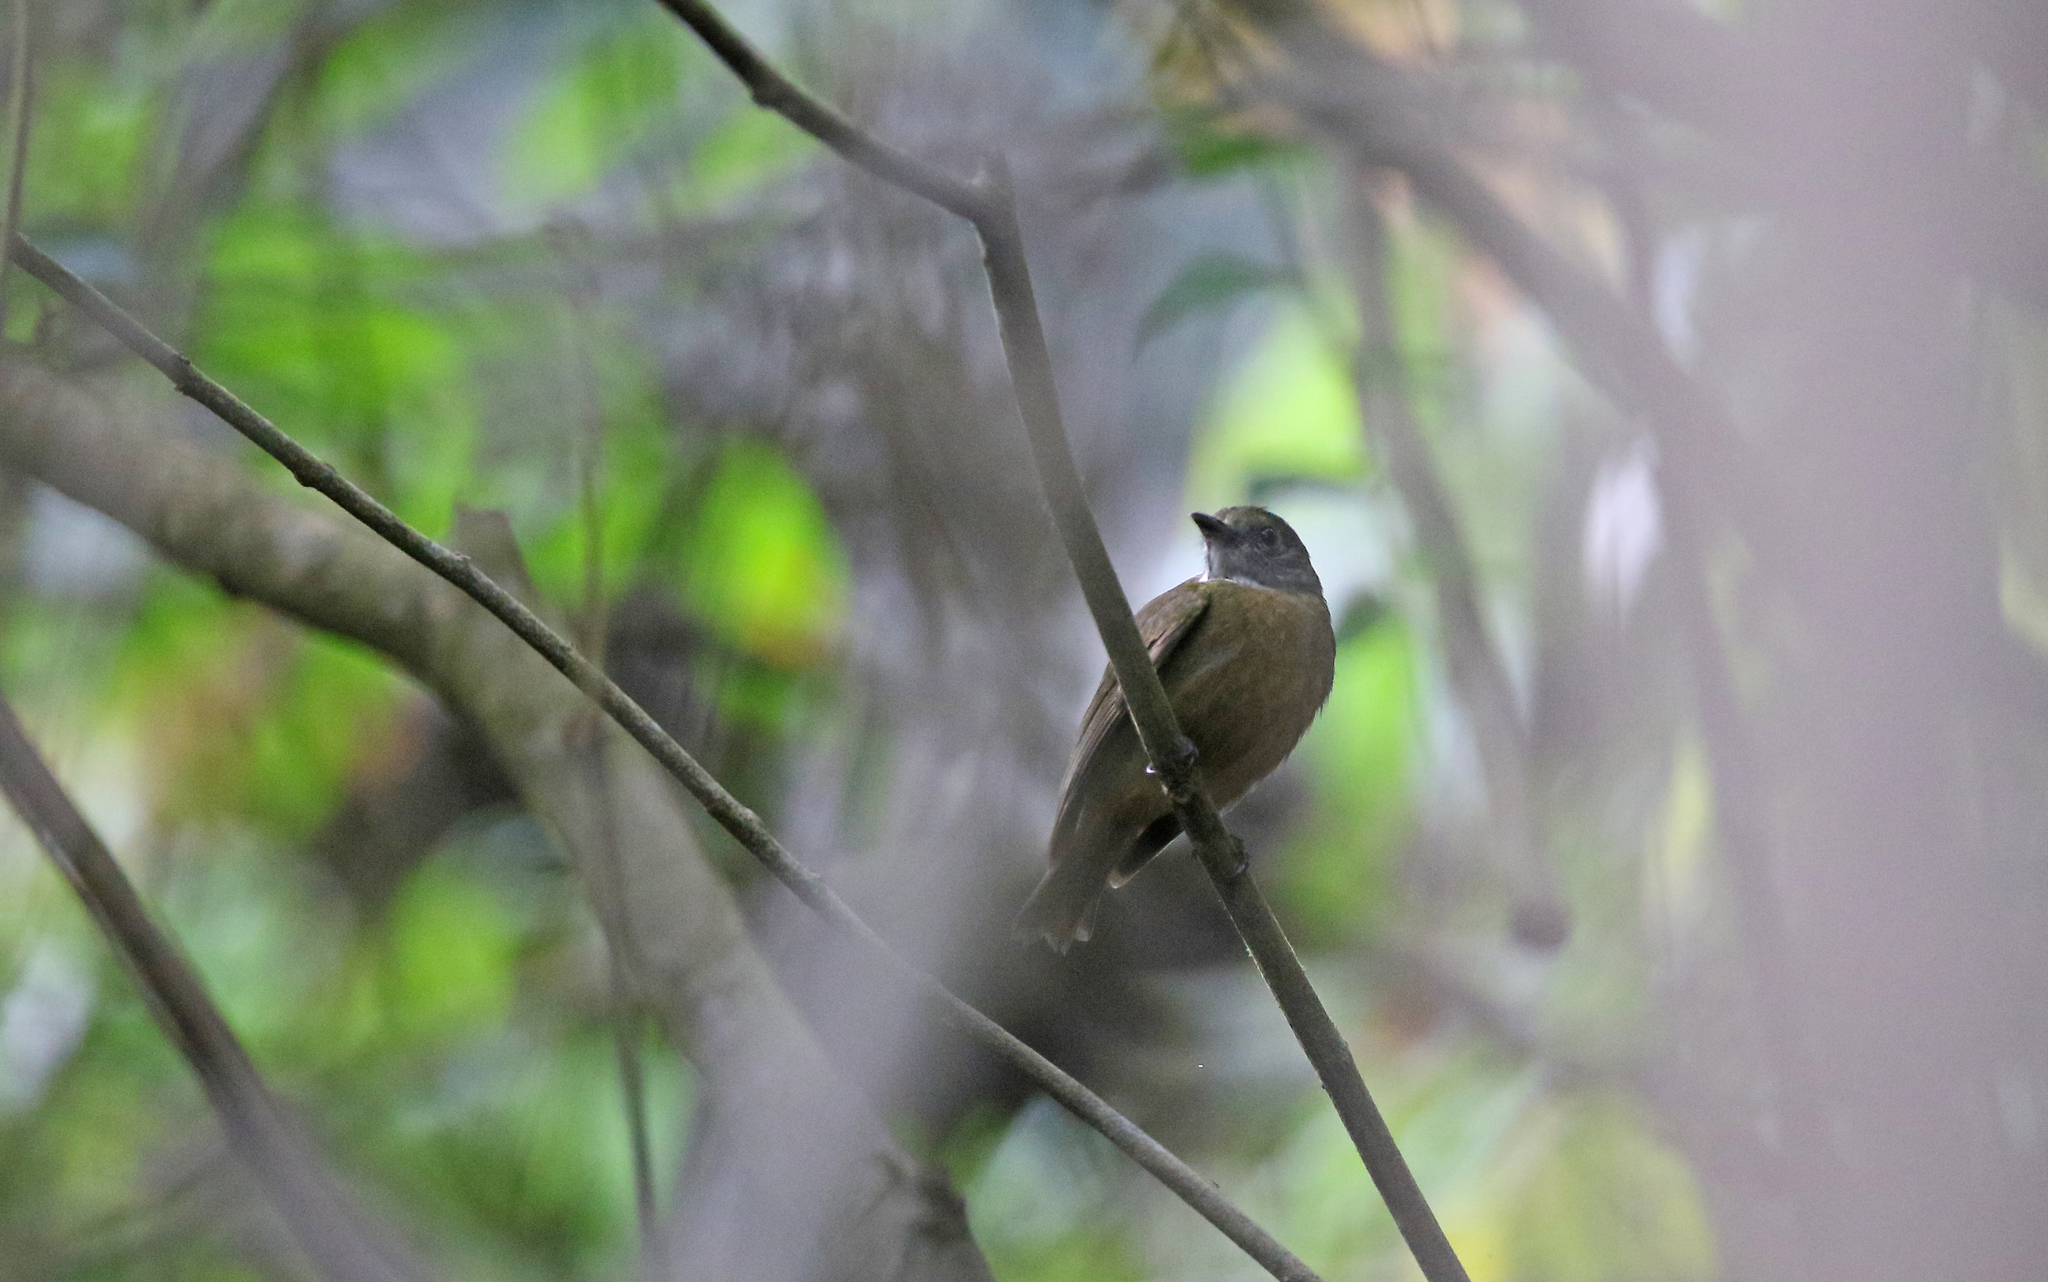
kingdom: Animalia
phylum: Chordata
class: Aves
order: Passeriformes
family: Pipridae
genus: Heterocercus
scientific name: Heterocercus aurantiivertex
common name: Orange-crested manakin
